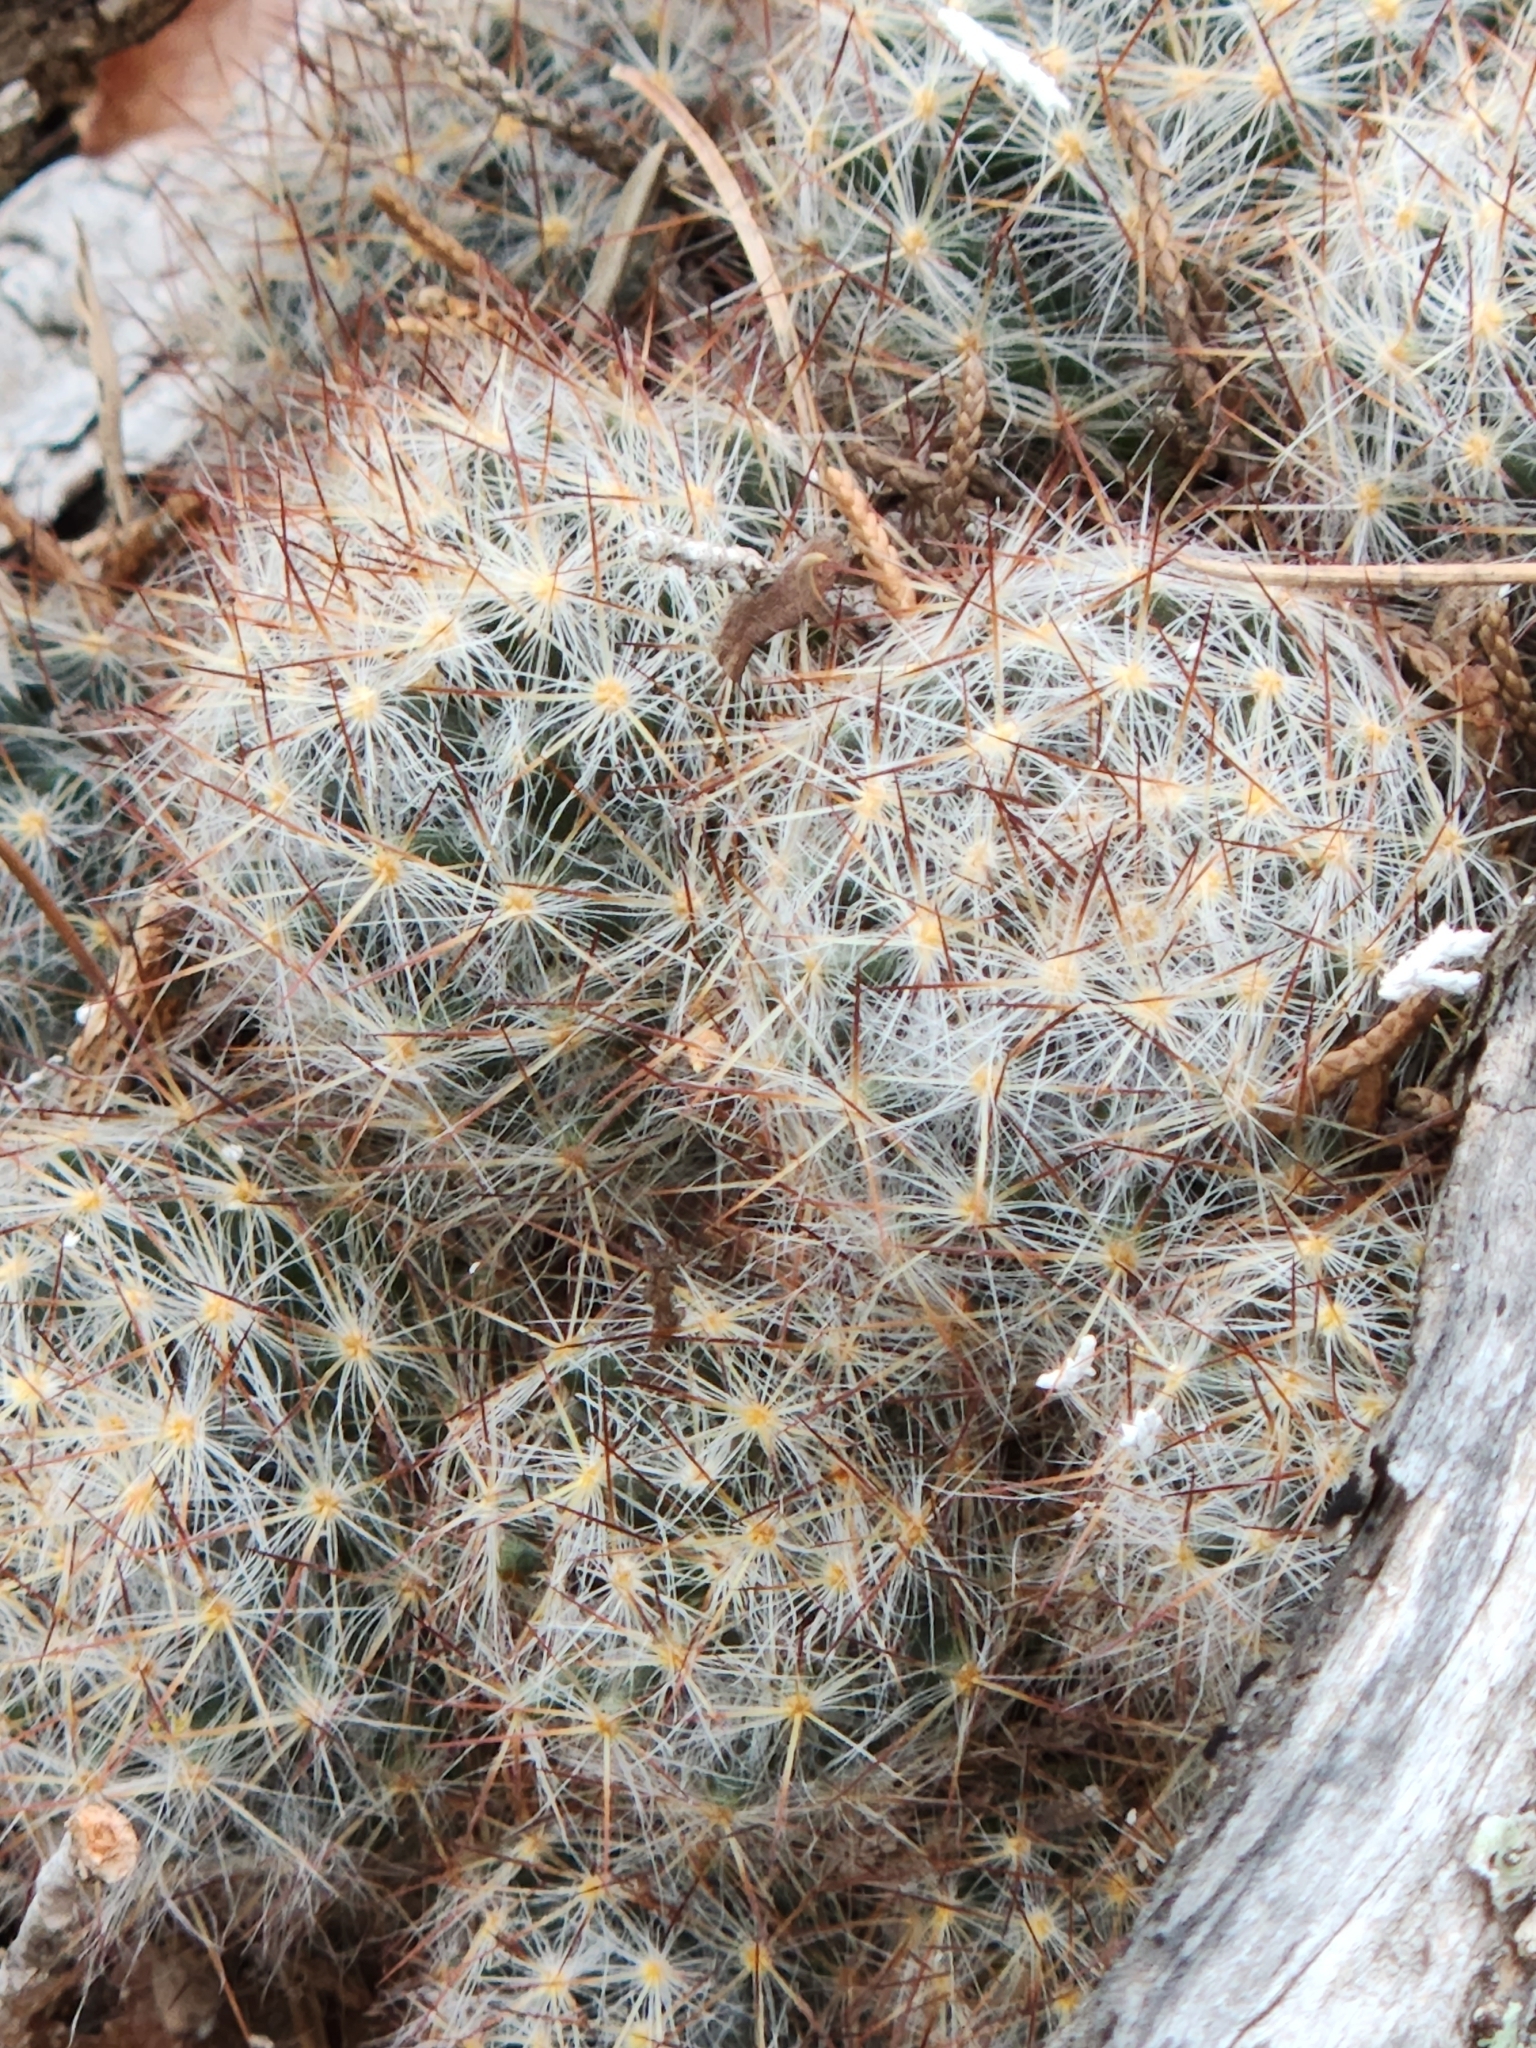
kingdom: Plantae
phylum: Tracheophyta
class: Magnoliopsida
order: Caryophyllales
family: Cactaceae
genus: Mammillaria
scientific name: Mammillaria prolifera
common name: Texas nipple cactus
